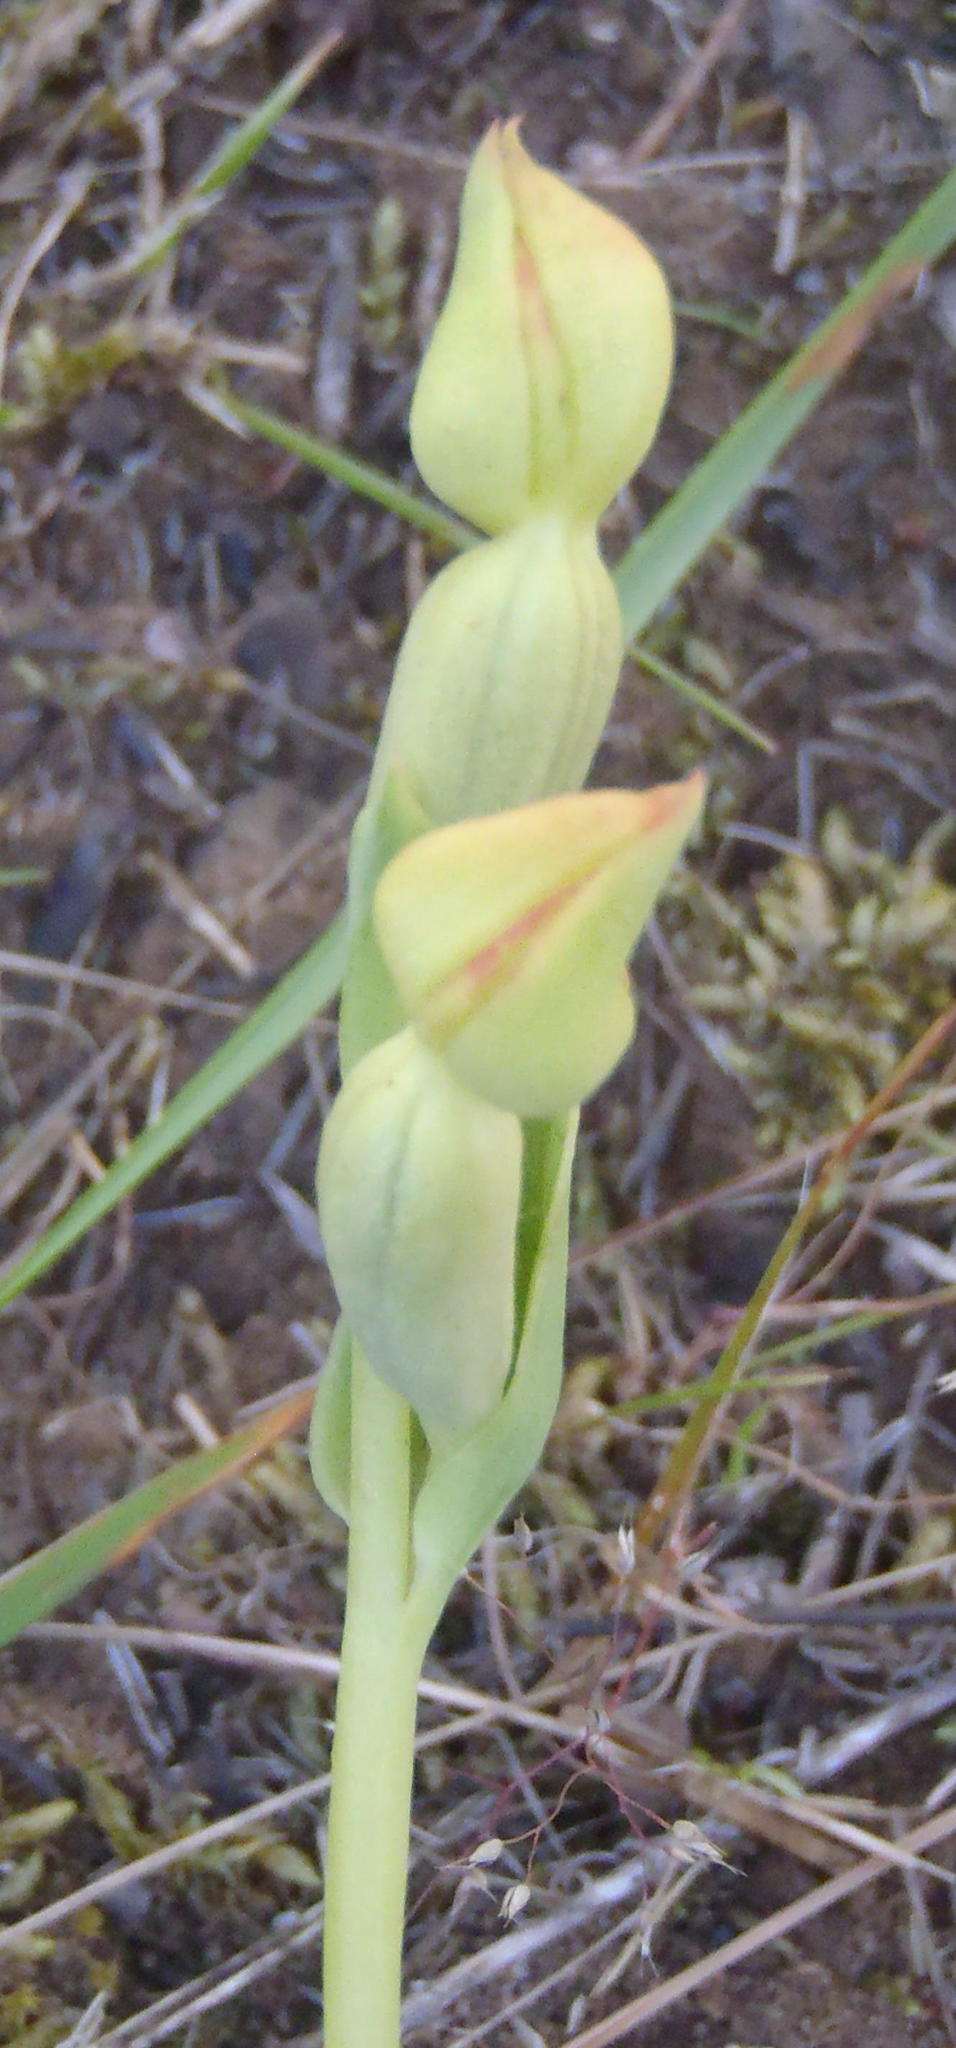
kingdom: Plantae
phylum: Tracheophyta
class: Liliopsida
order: Asparagales
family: Orchidaceae
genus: Pterygodium
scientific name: Pterygodium cleistogamum
